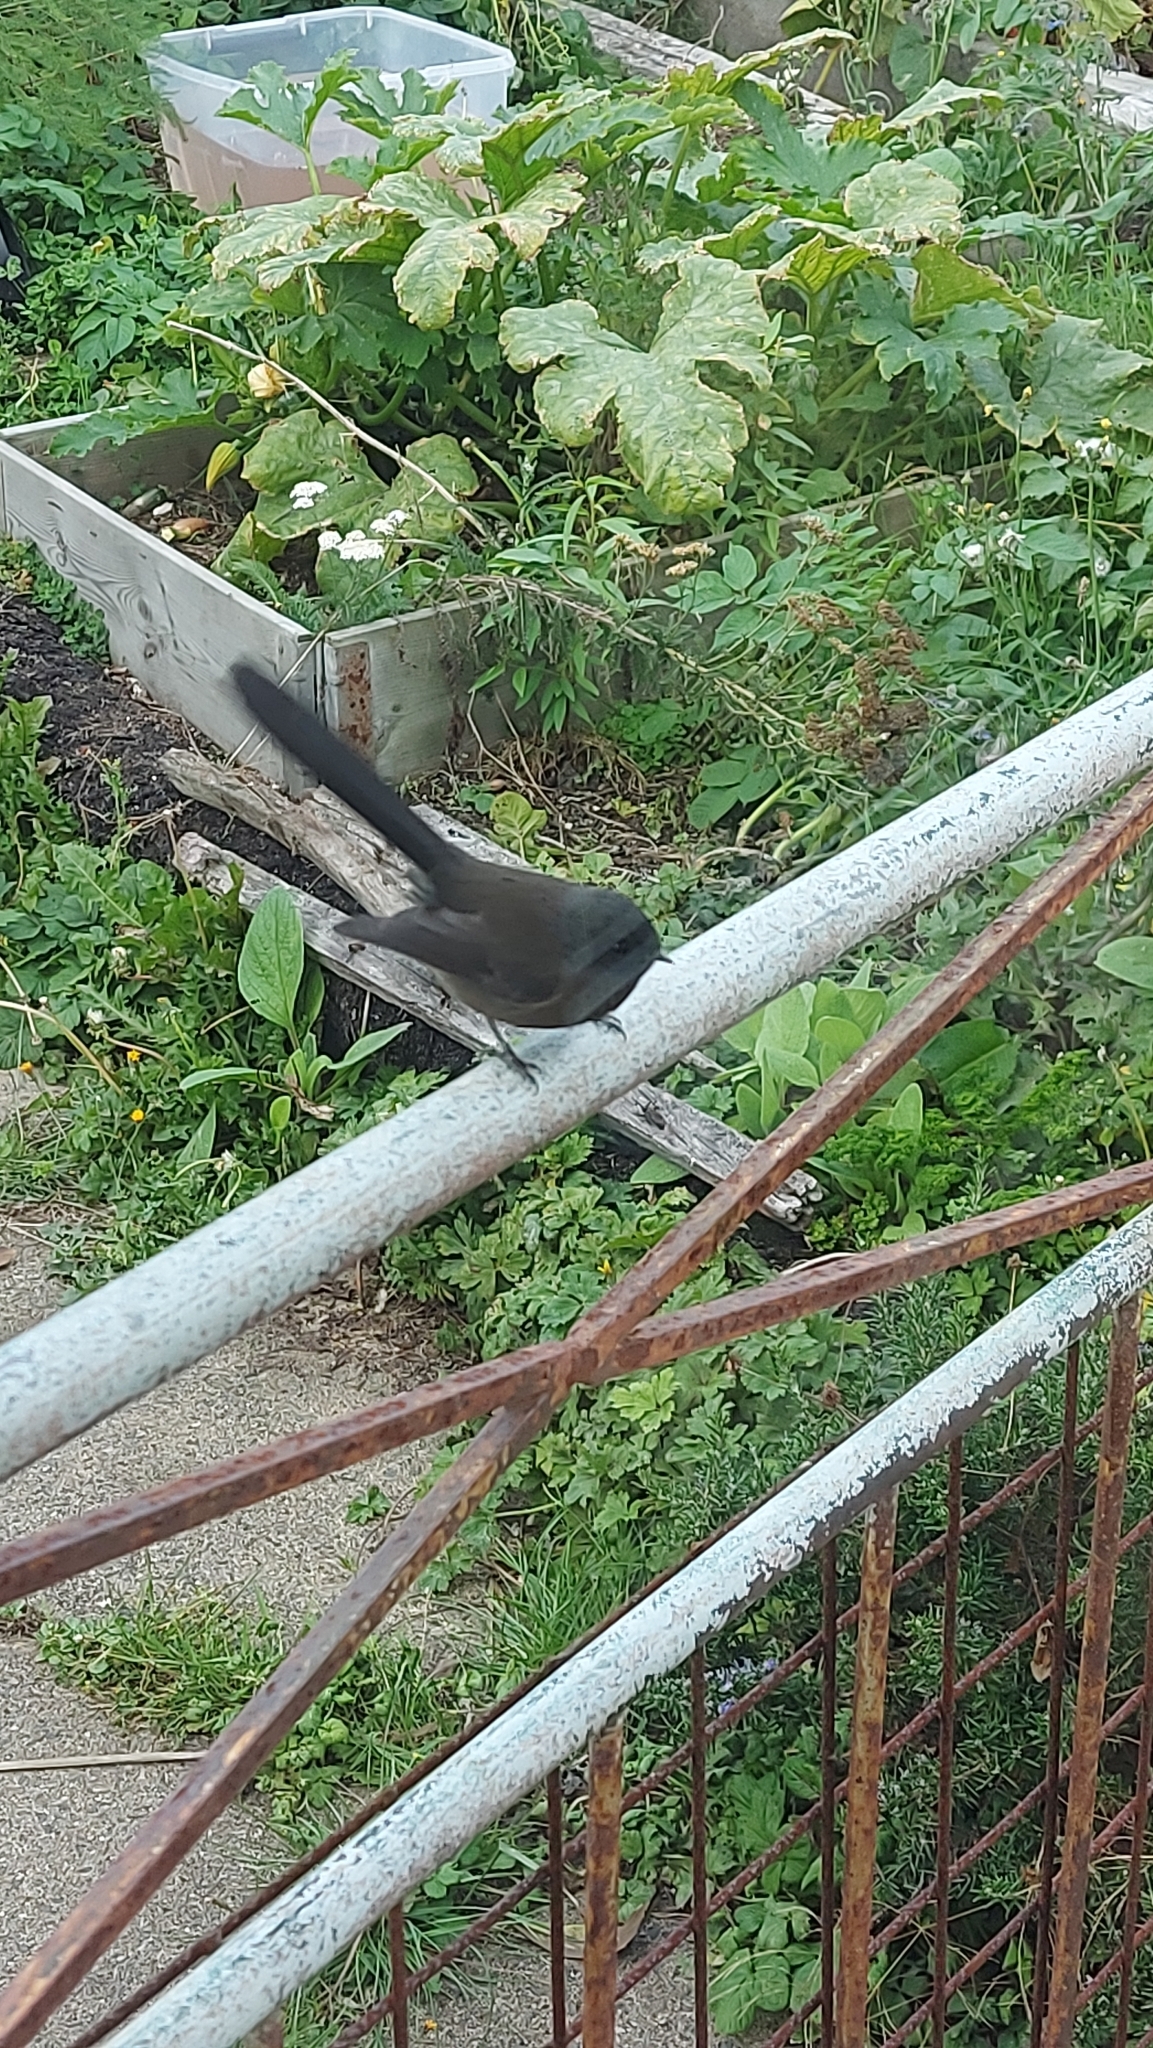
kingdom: Animalia
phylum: Chordata
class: Aves
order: Passeriformes
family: Rhipiduridae
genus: Rhipidura
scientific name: Rhipidura fuliginosa
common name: New zealand fantail
